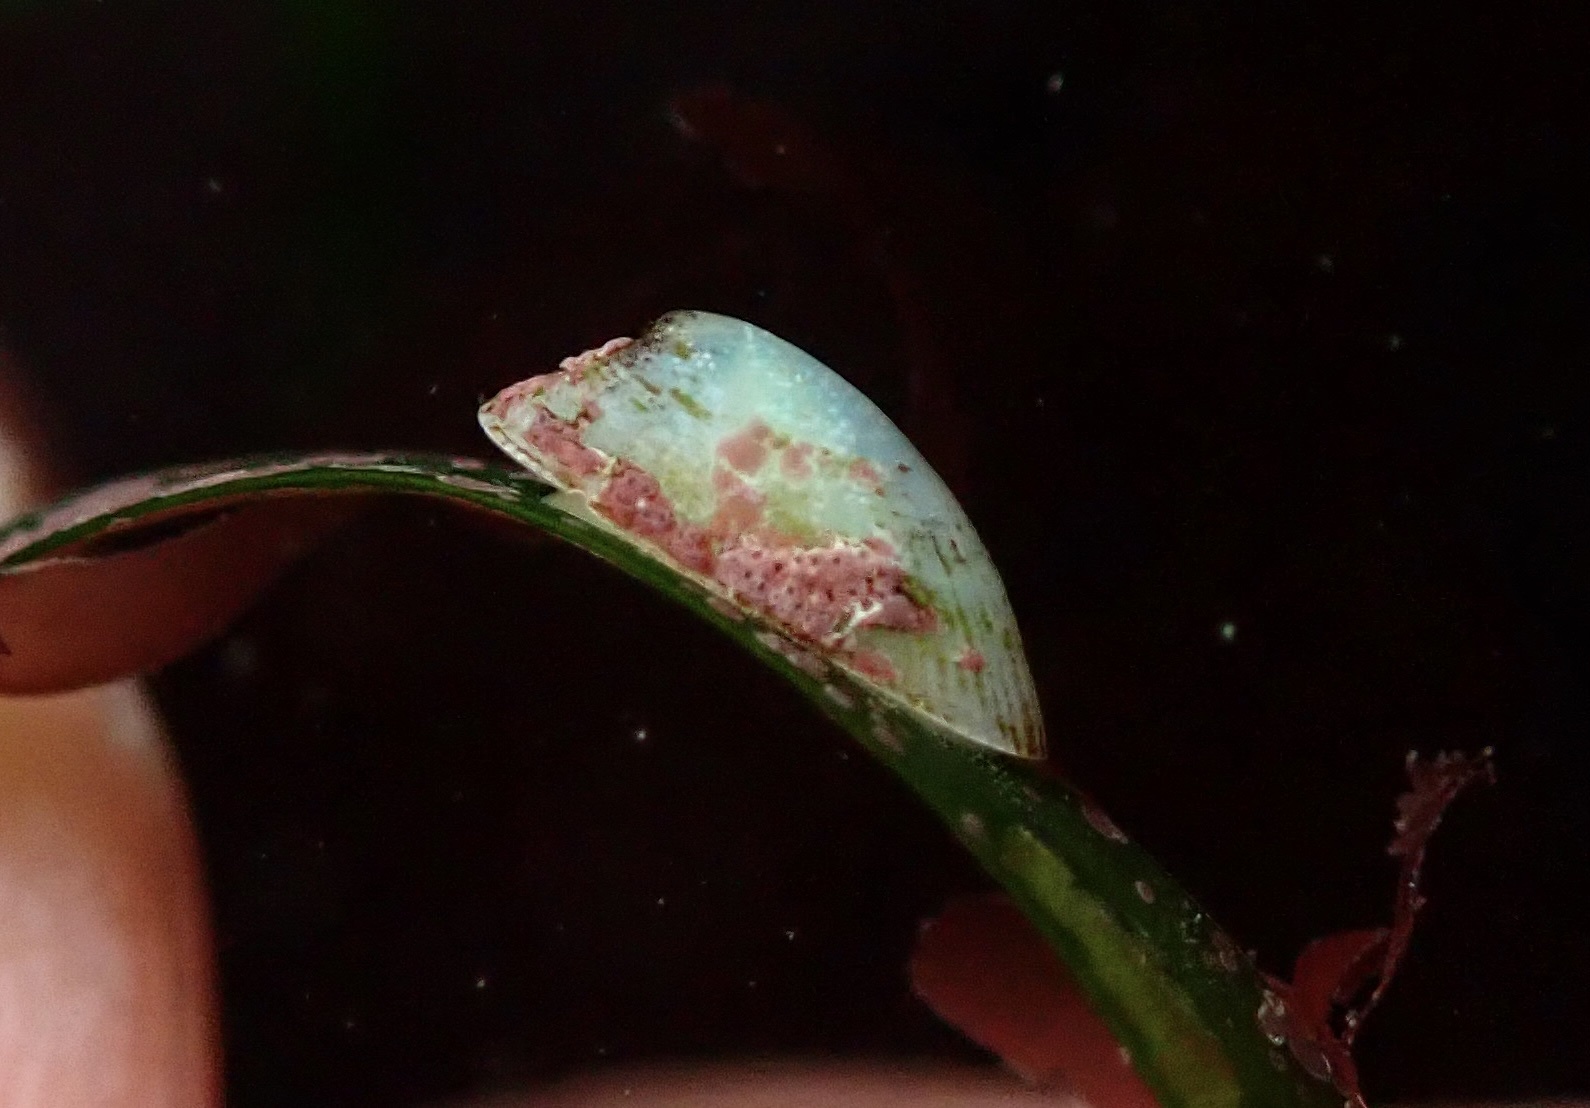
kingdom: Animalia
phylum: Mollusca
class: Gastropoda
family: Lottiidae
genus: Tectura
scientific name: Tectura paleacea
